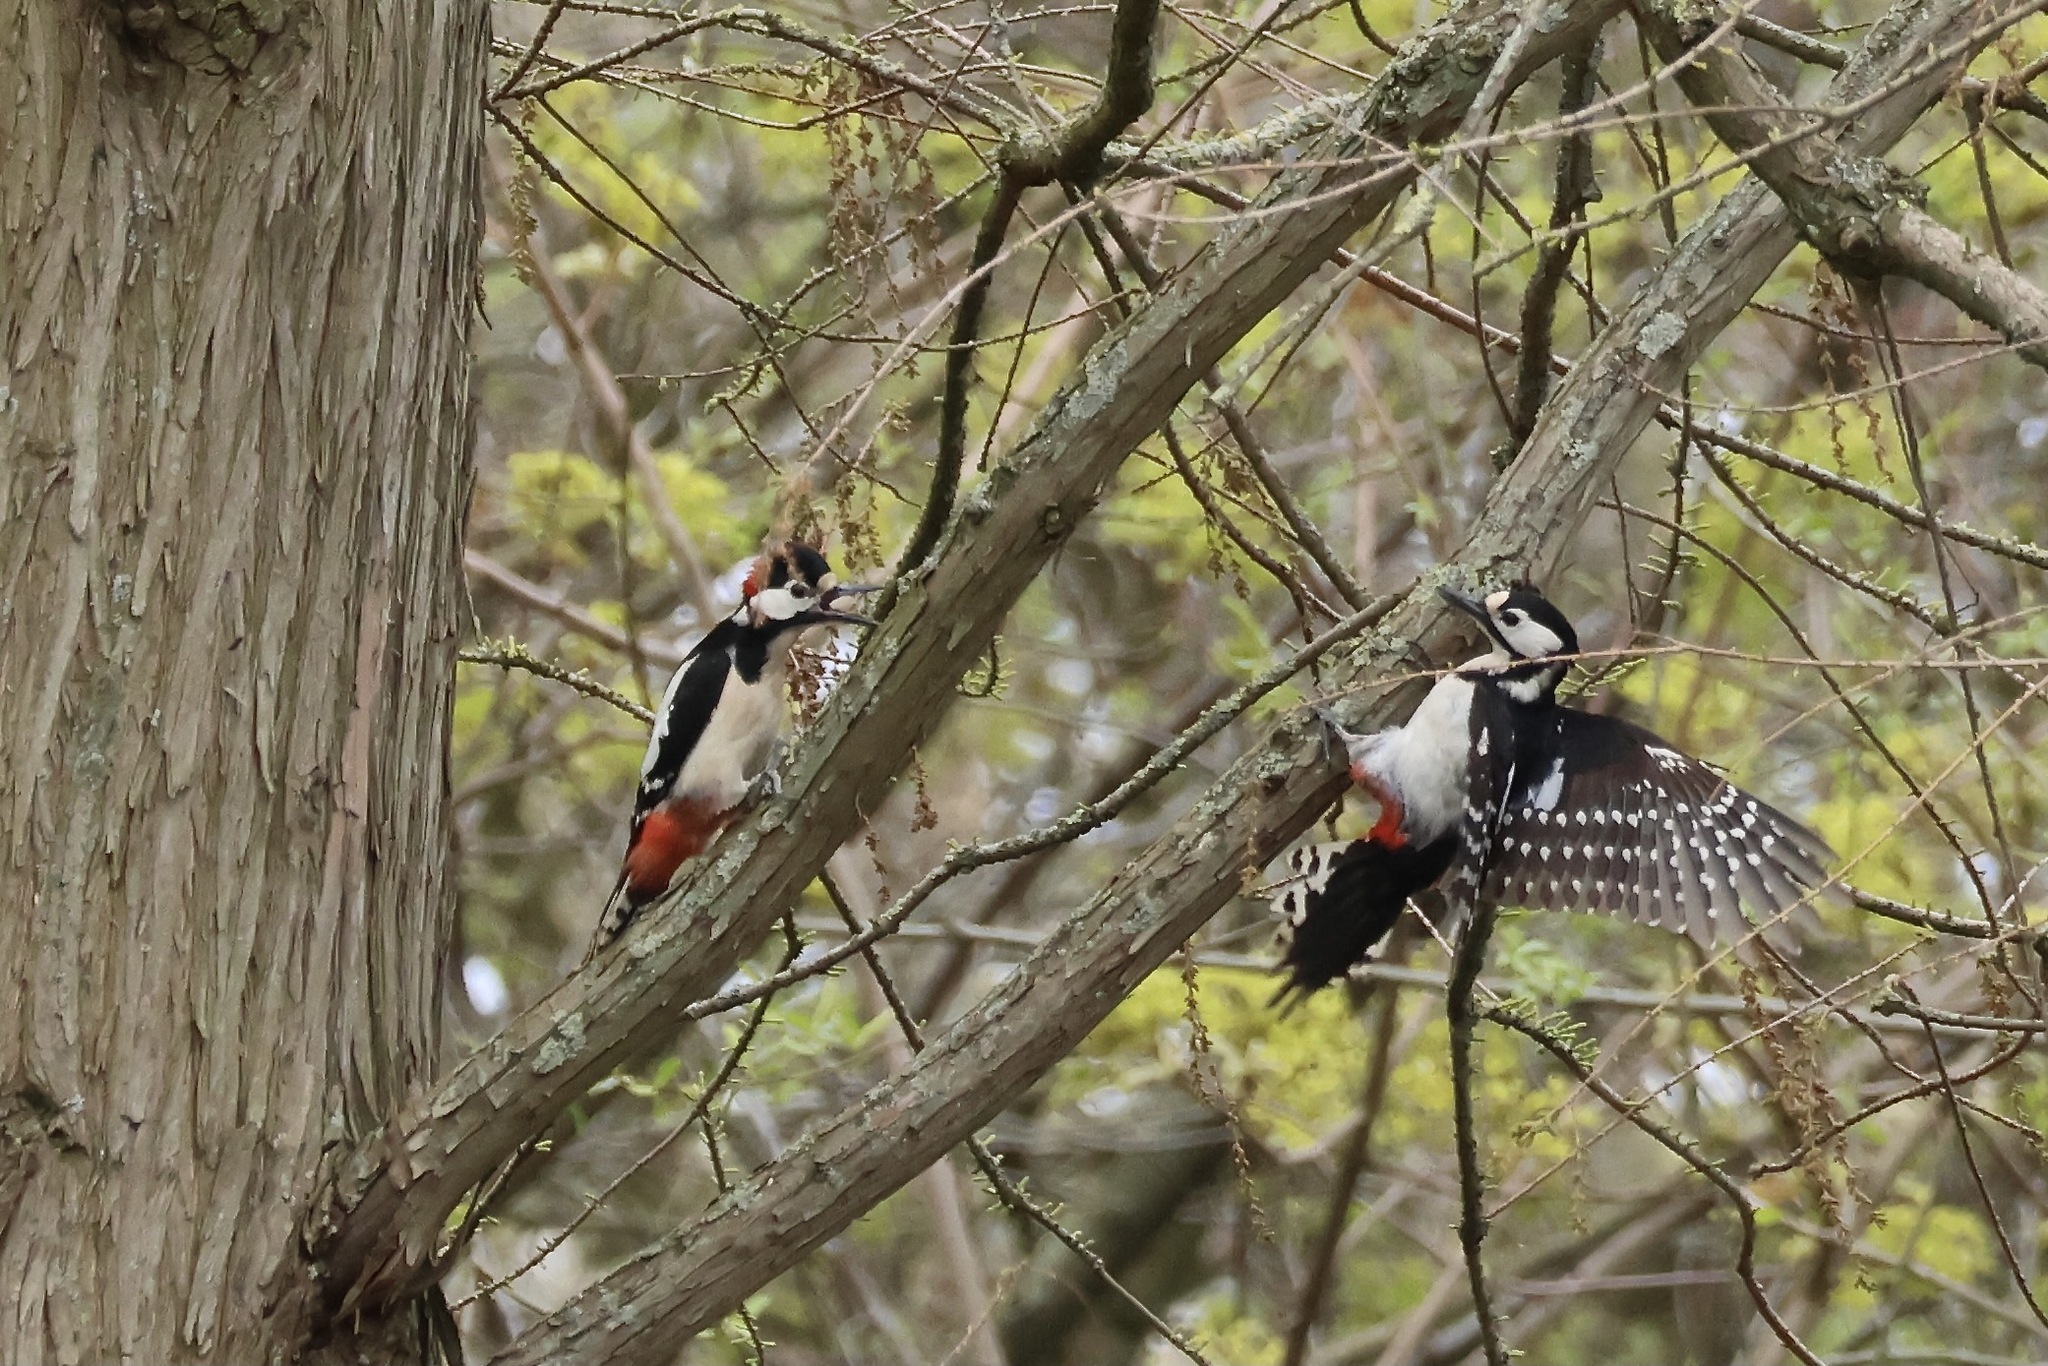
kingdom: Animalia
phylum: Chordata
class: Aves
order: Piciformes
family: Picidae
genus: Dendrocopos
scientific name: Dendrocopos major
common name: Great spotted woodpecker
